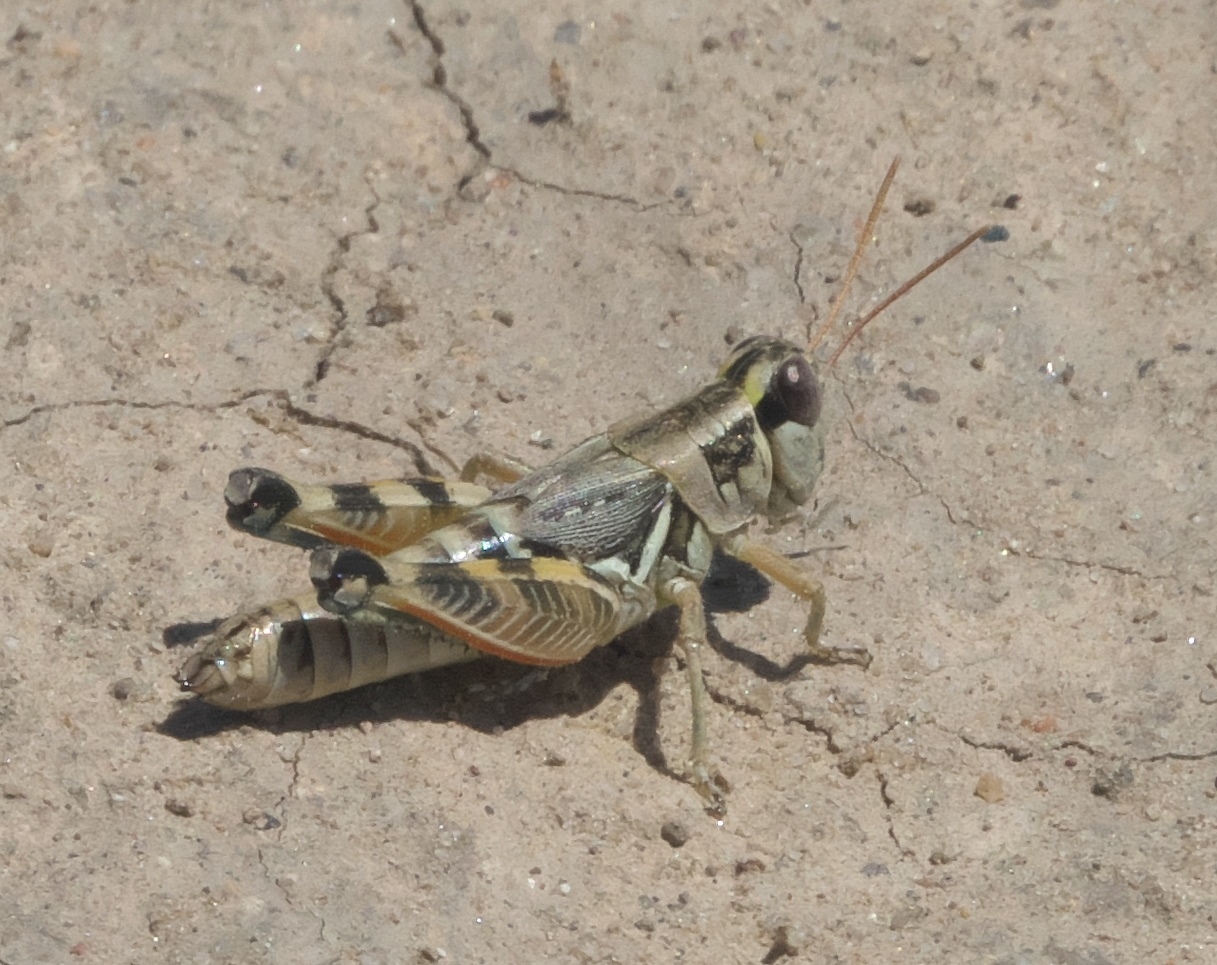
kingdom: Animalia
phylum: Arthropoda
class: Insecta
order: Orthoptera
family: Acrididae
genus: Melanoplus
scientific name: Melanoplus lakinus
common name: Lakin grasshopper
